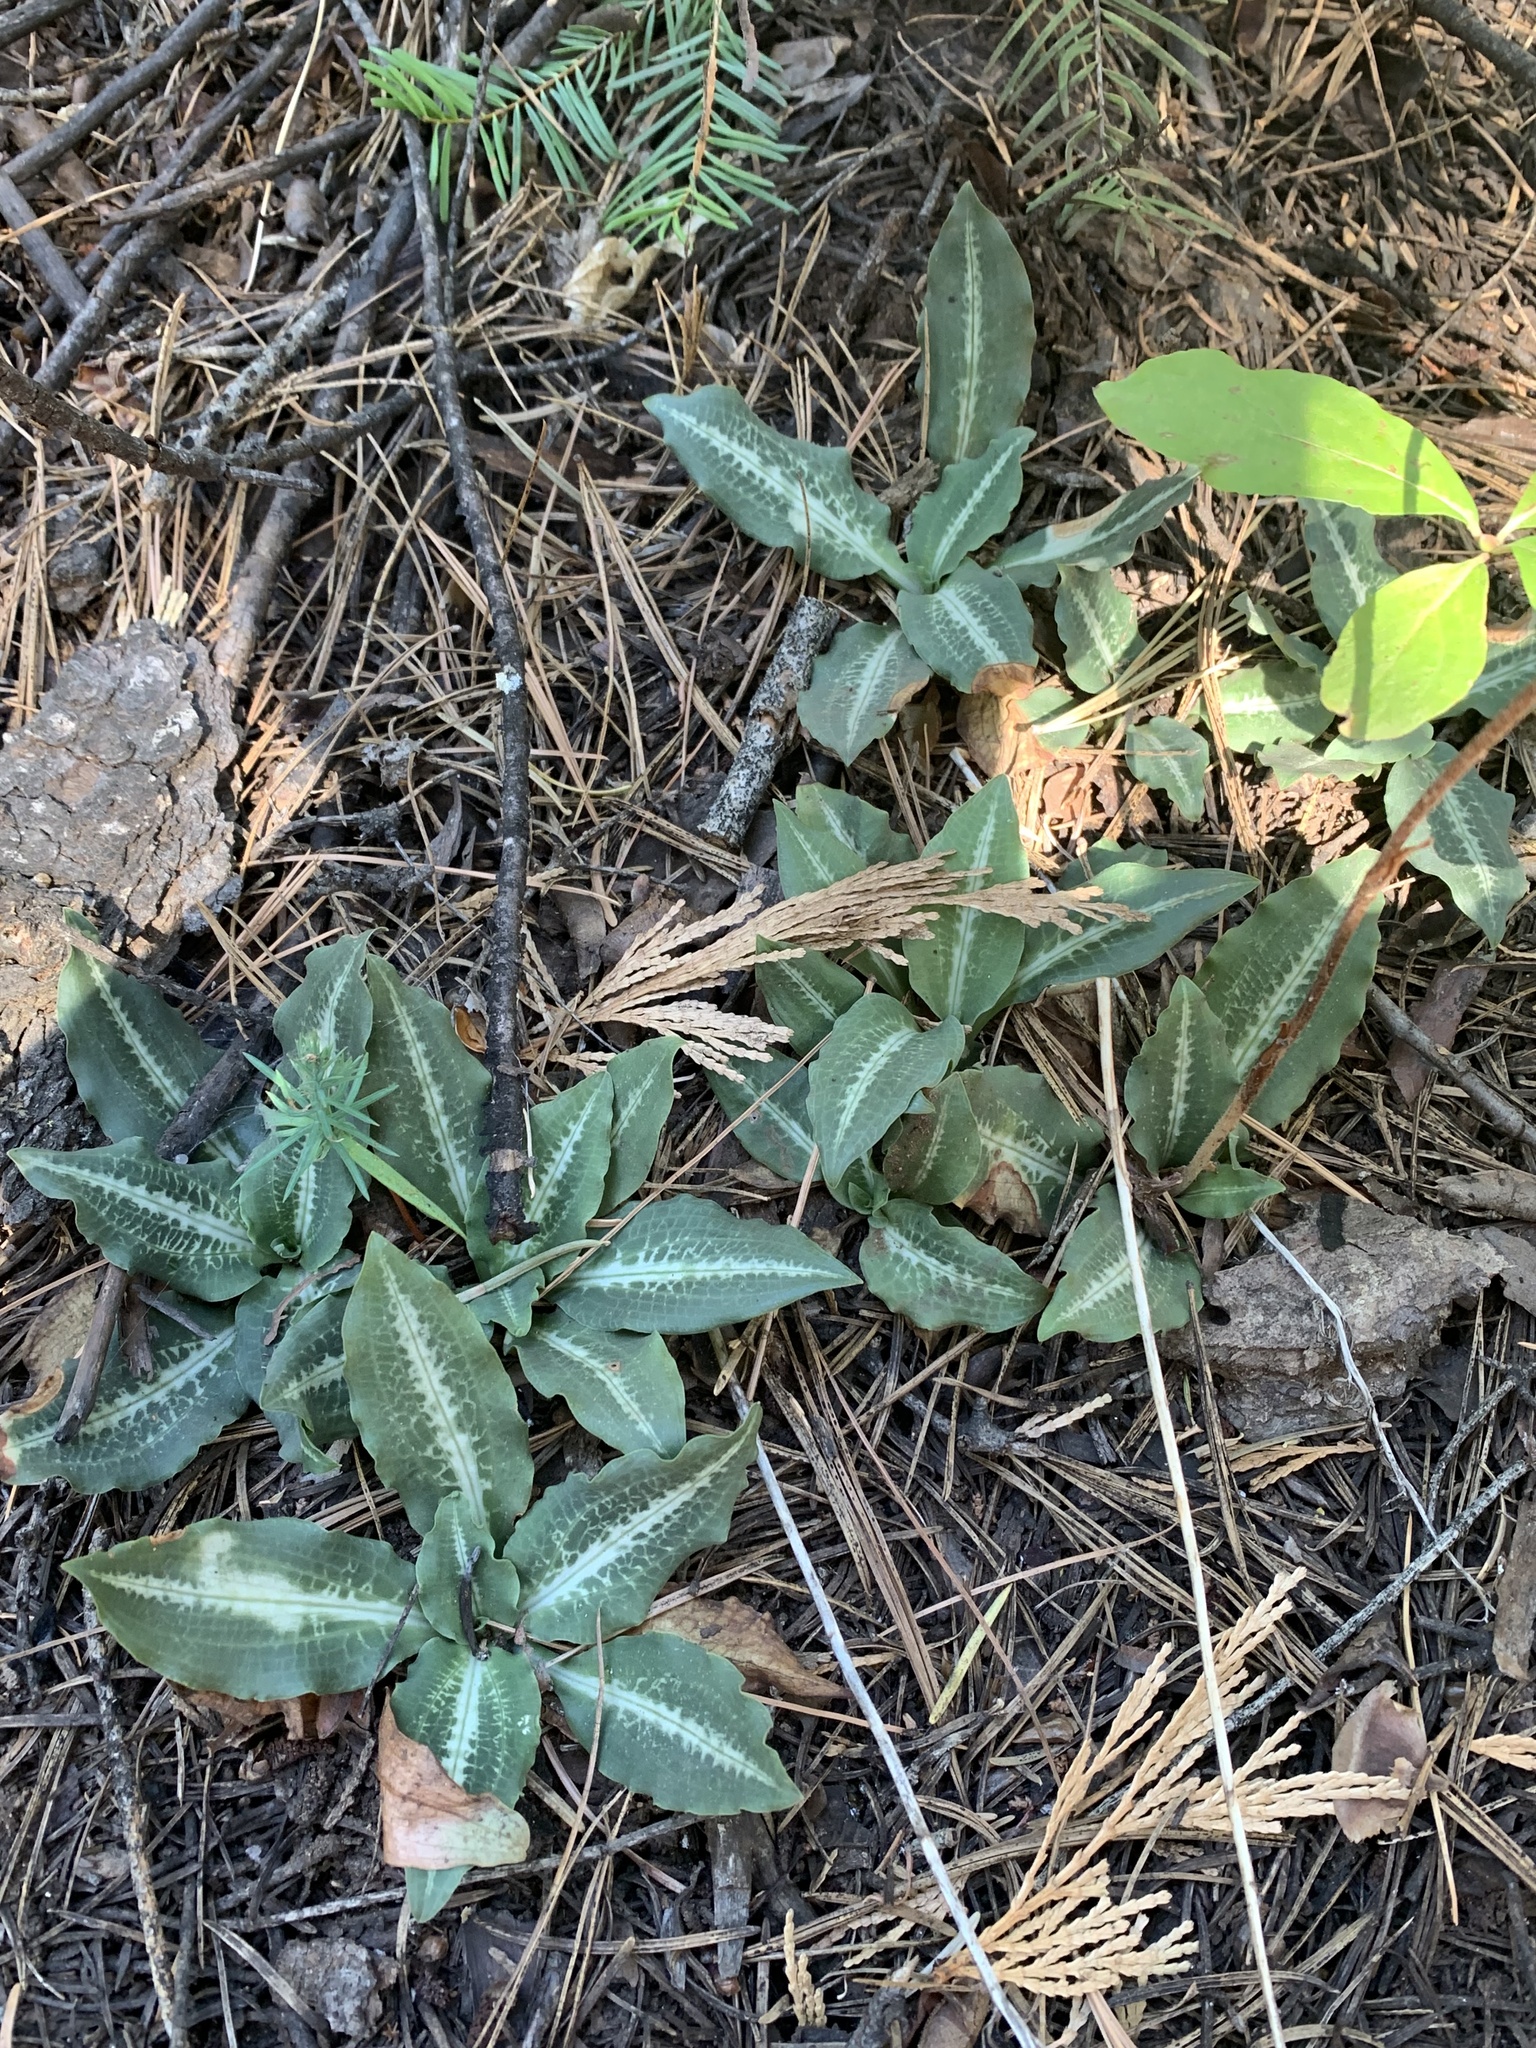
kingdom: Plantae
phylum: Tracheophyta
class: Liliopsida
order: Asparagales
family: Orchidaceae
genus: Goodyera
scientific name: Goodyera oblongifolia
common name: Giant rattlesnake-plantain
